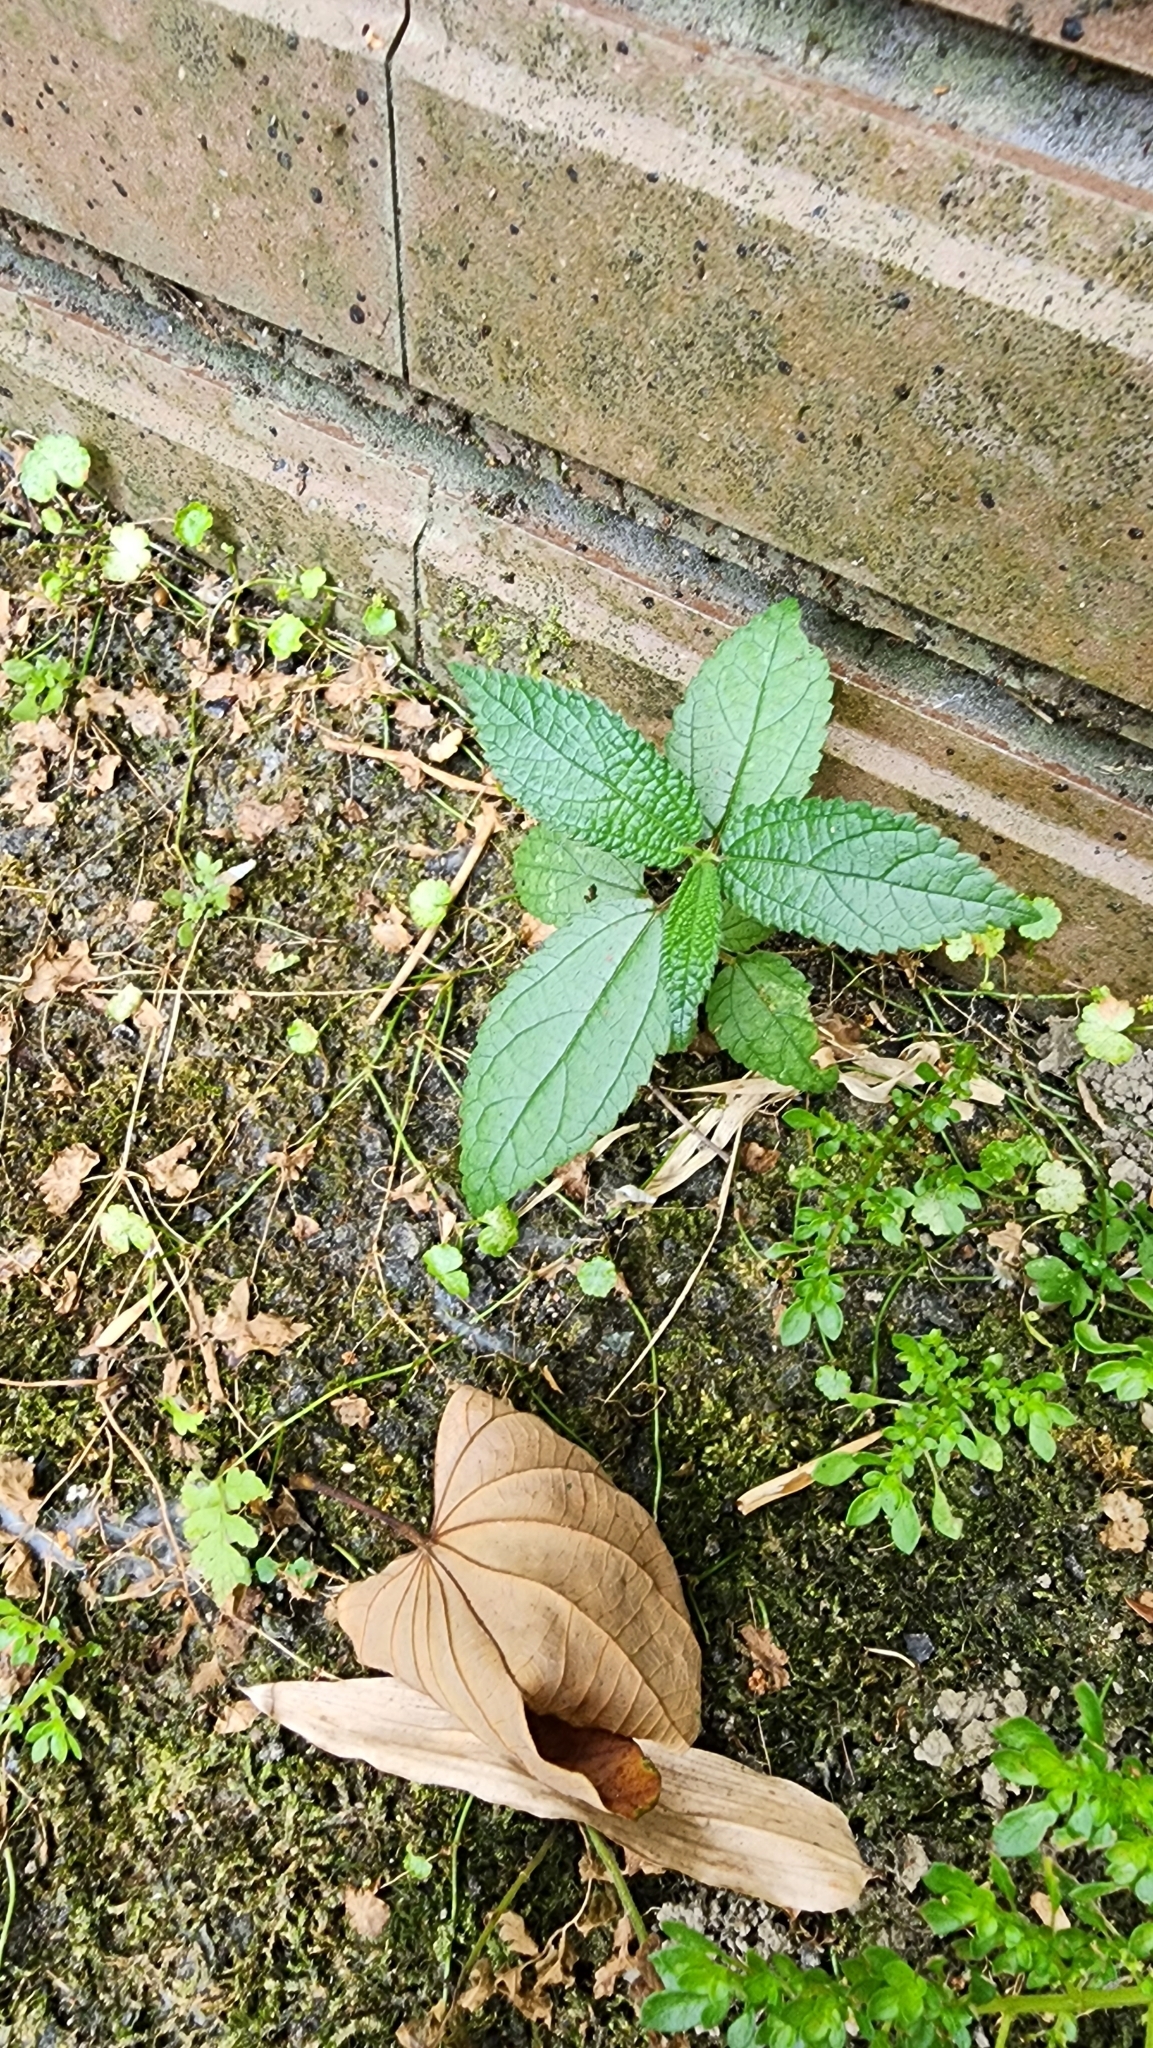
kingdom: Plantae
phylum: Tracheophyta
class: Magnoliopsida
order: Rosales
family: Urticaceae
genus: Debregeasia
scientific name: Debregeasia orientalis
